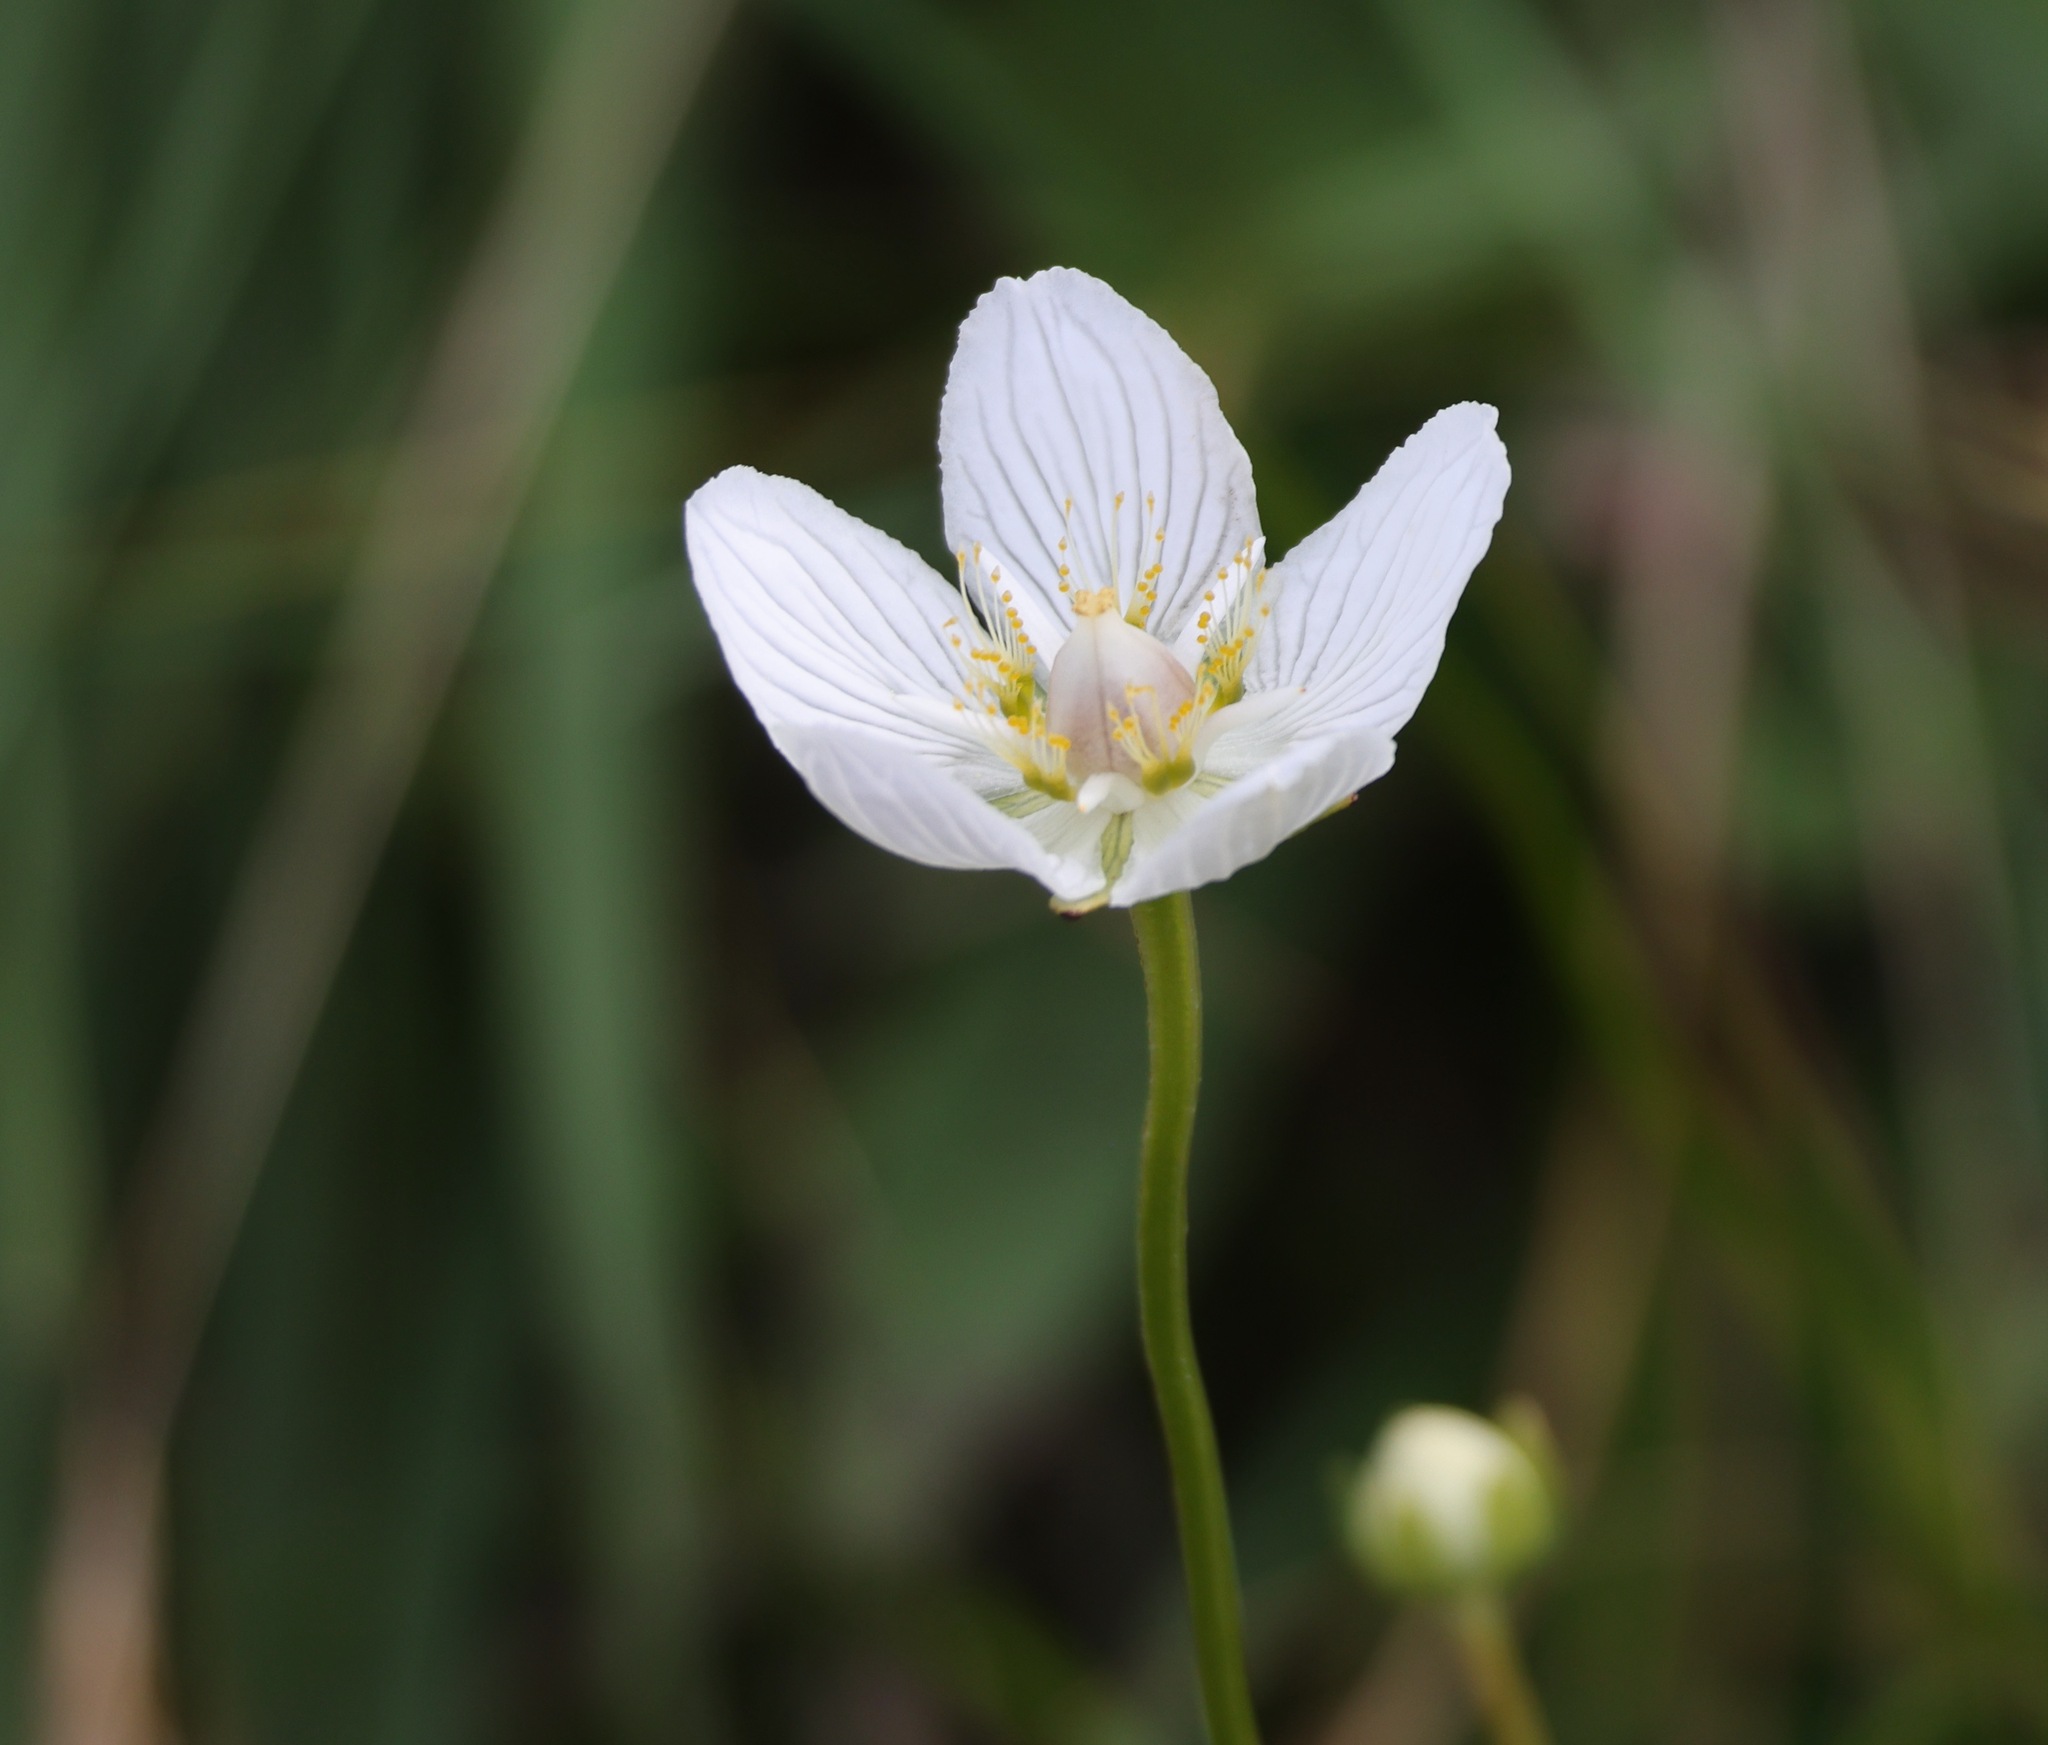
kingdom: Plantae
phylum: Tracheophyta
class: Magnoliopsida
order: Celastrales
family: Parnassiaceae
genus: Parnassia
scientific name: Parnassia palustris
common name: Grass-of-parnassus
